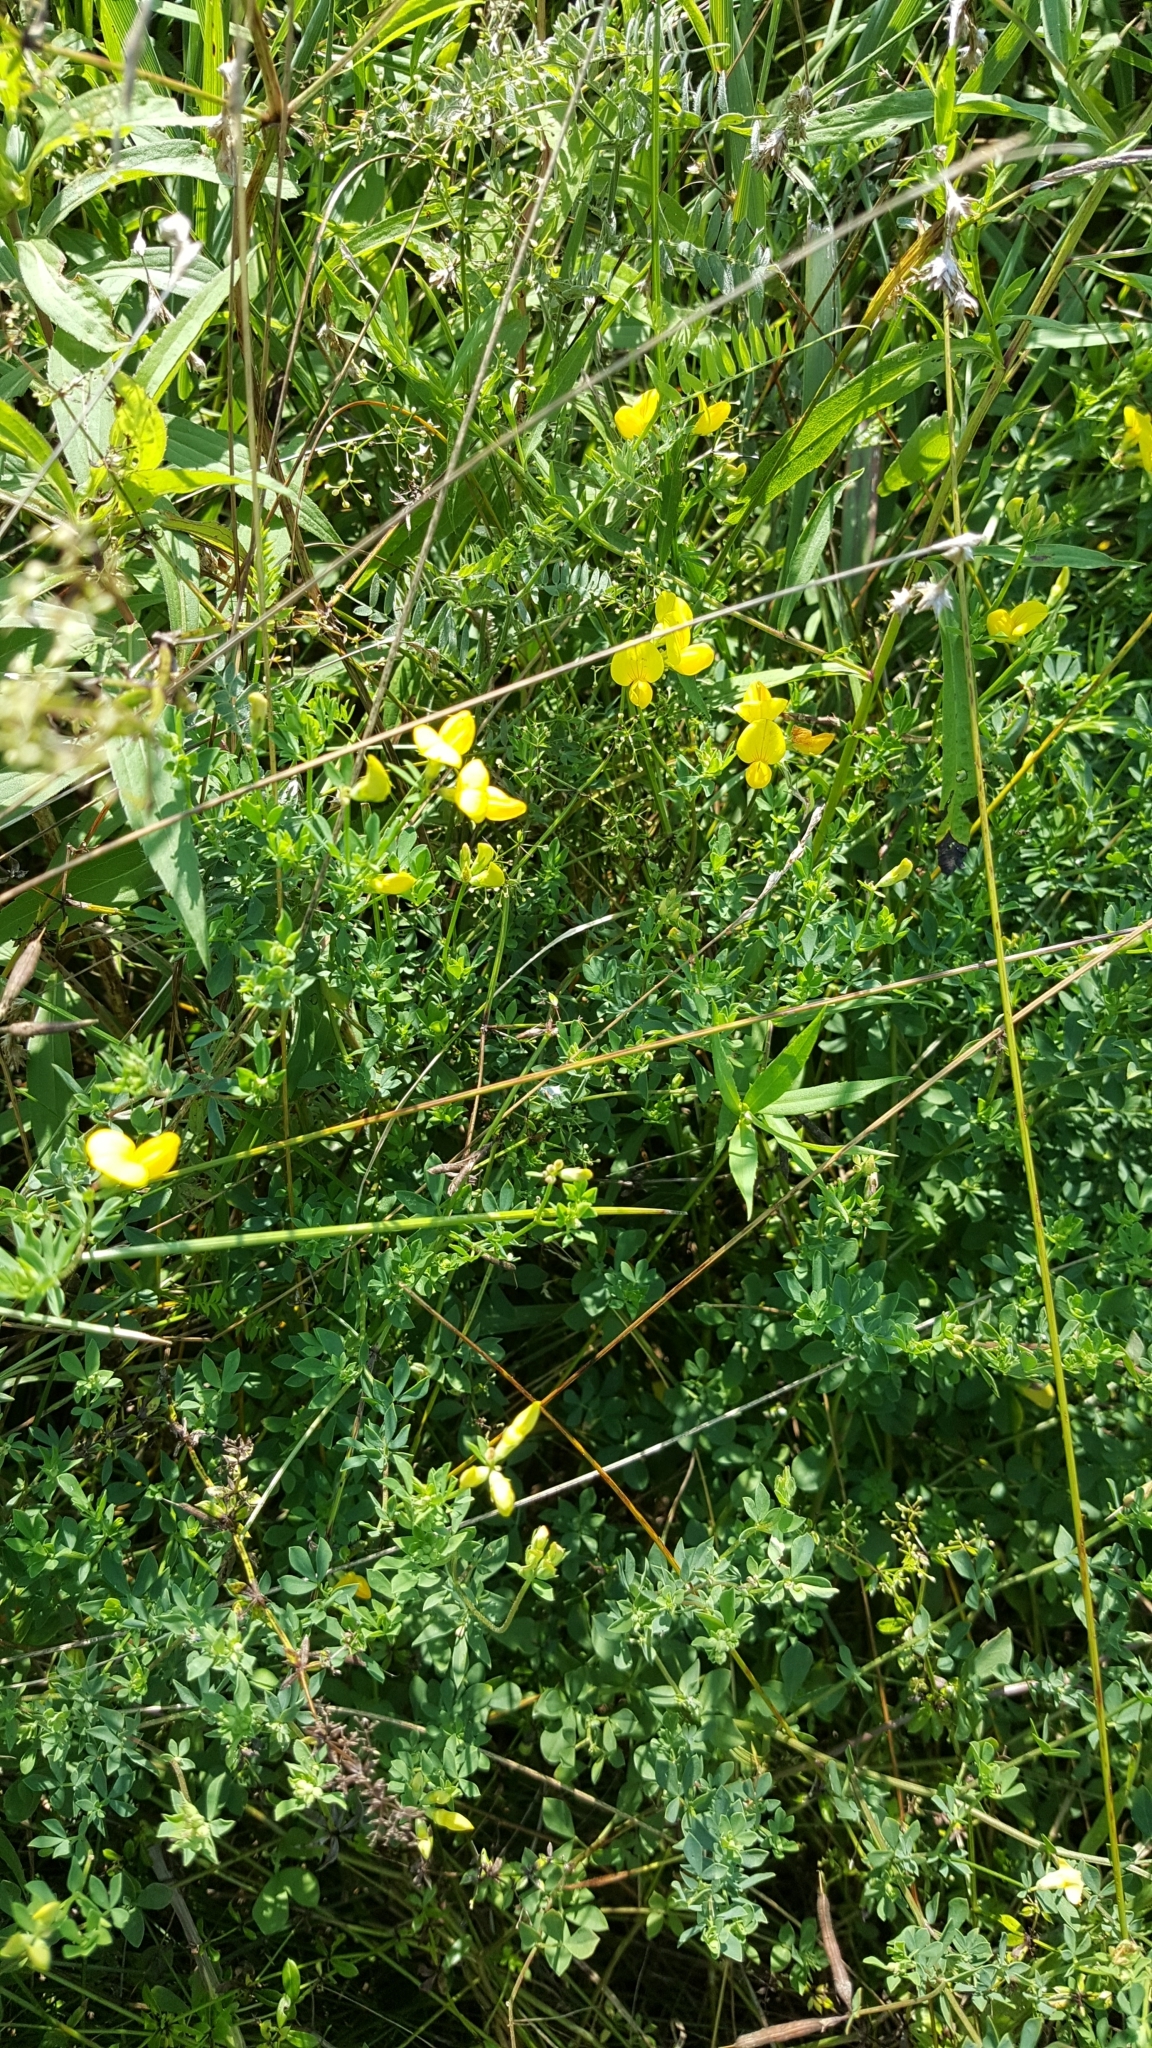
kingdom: Plantae
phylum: Tracheophyta
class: Magnoliopsida
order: Fabales
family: Fabaceae
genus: Lotus
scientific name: Lotus corniculatus
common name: Common bird's-foot-trefoil
